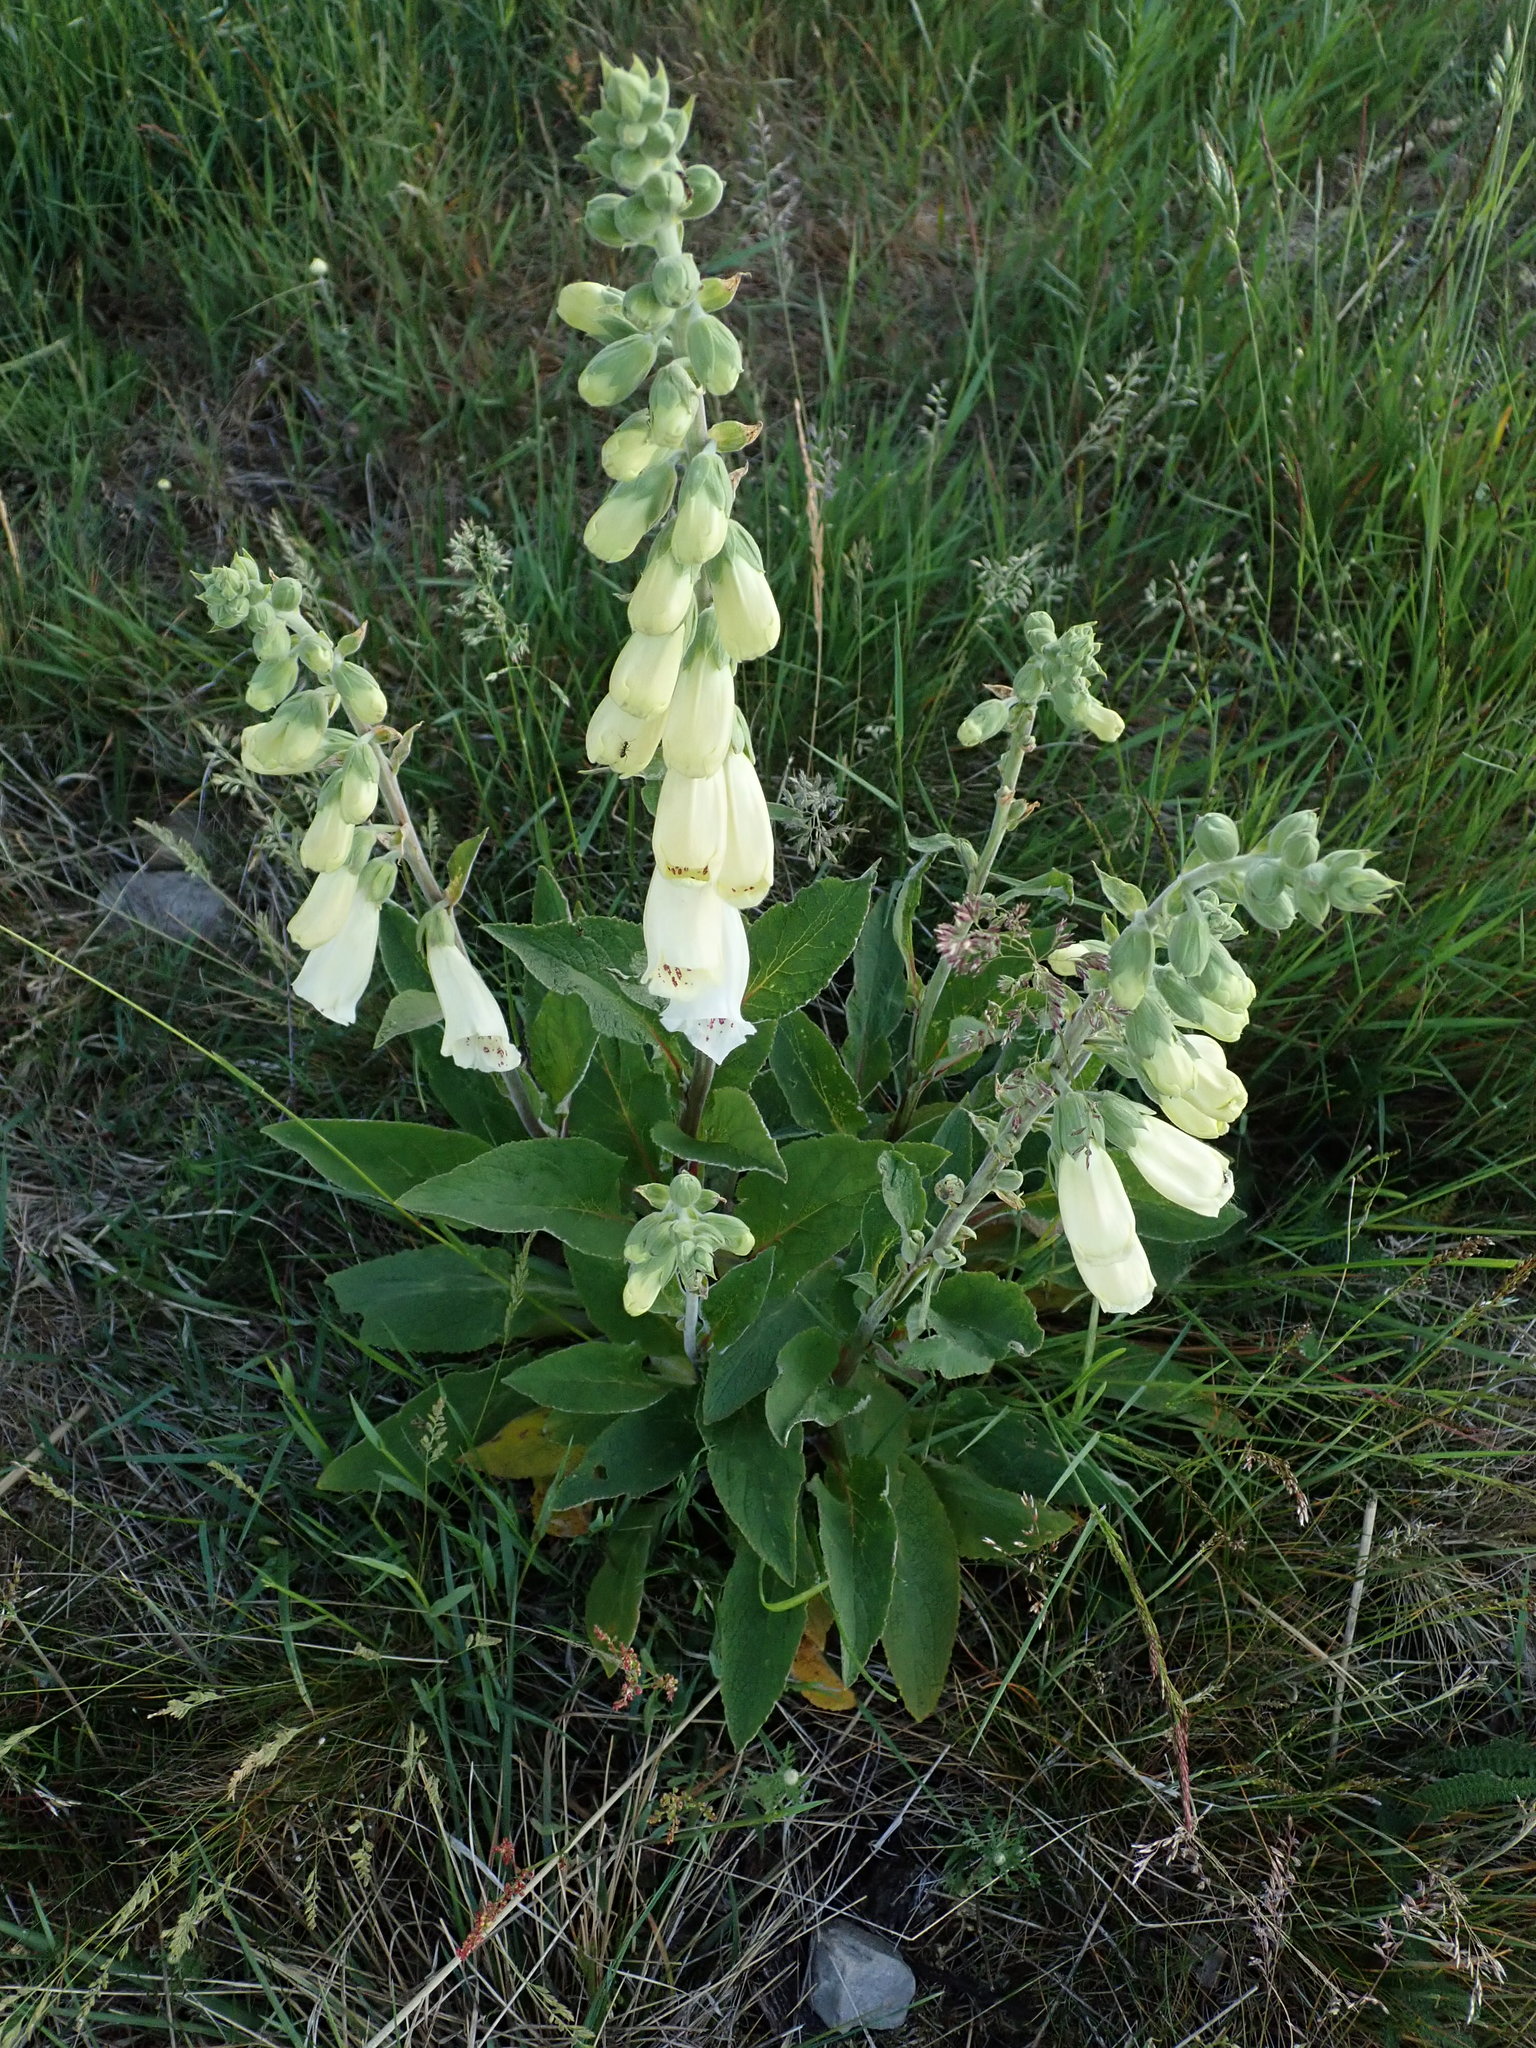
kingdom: Plantae
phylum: Tracheophyta
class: Magnoliopsida
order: Lamiales
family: Plantaginaceae
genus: Digitalis
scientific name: Digitalis purpurea
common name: Foxglove
